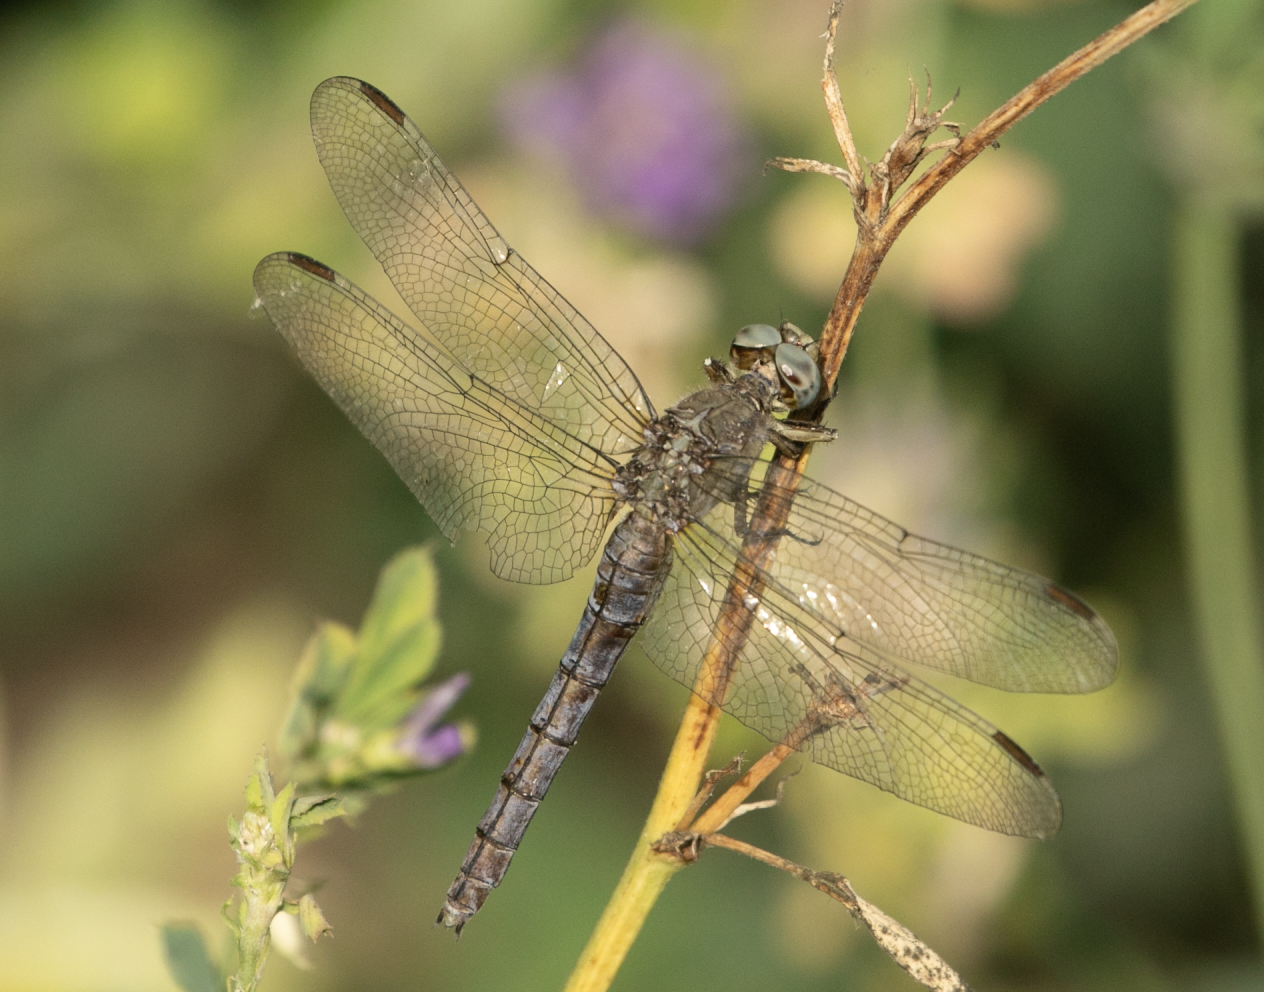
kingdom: Animalia
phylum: Arthropoda
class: Insecta
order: Odonata
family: Libellulidae
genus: Orthetrum
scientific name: Orthetrum coerulescens
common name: Keeled skimmer
